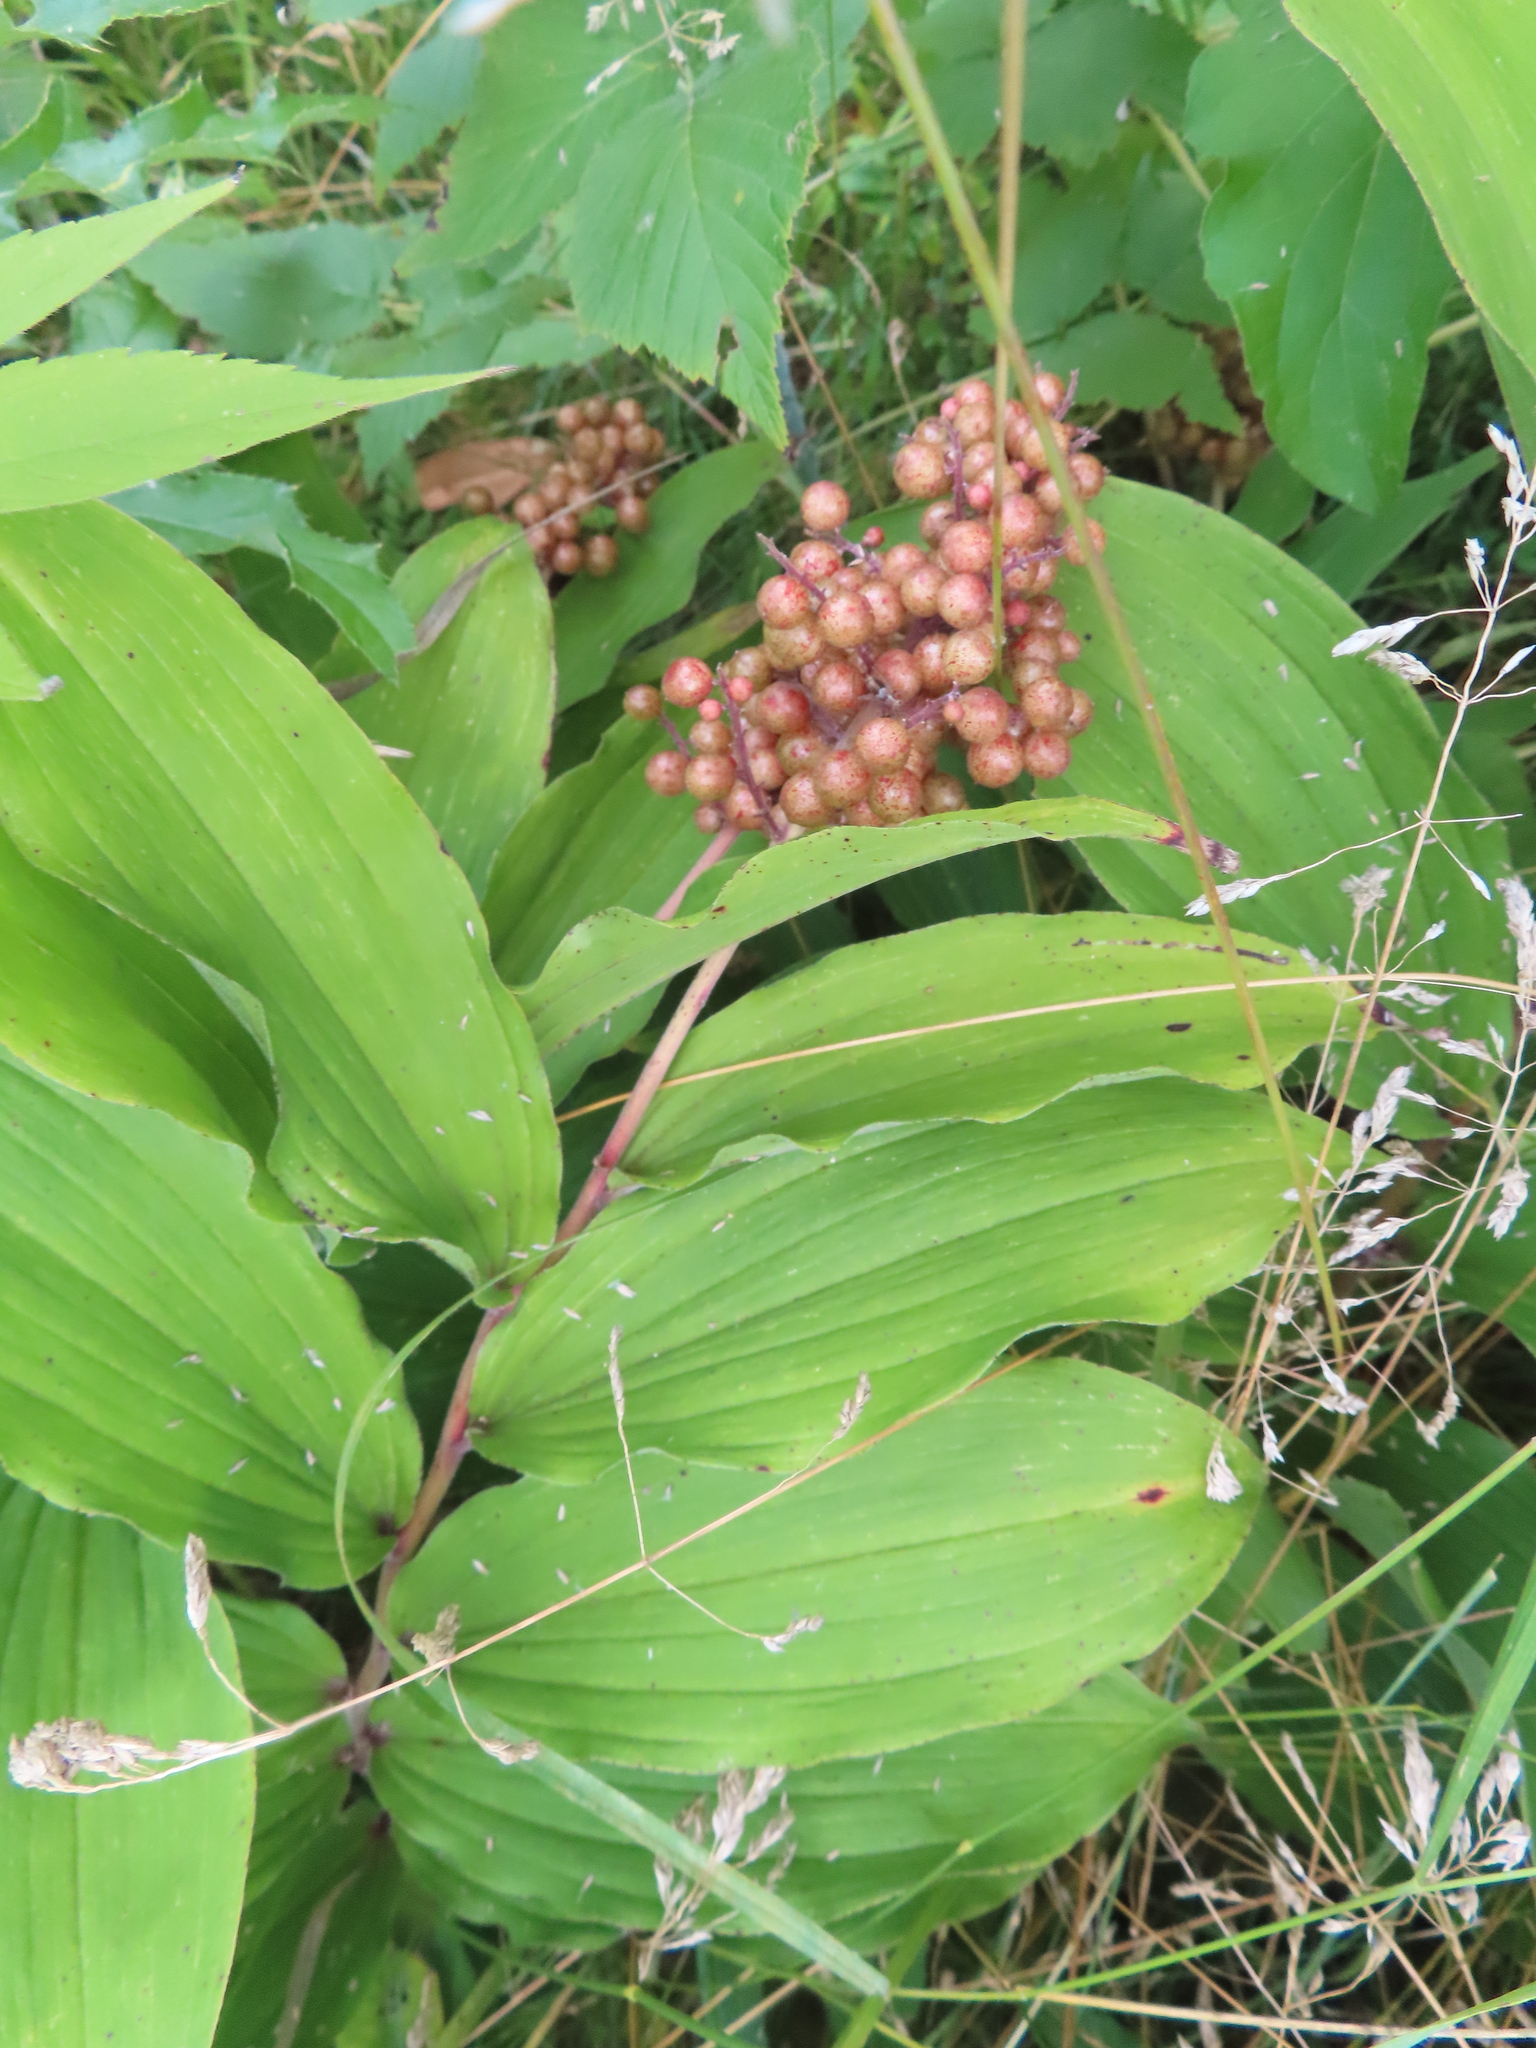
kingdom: Plantae
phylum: Tracheophyta
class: Liliopsida
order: Asparagales
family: Asparagaceae
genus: Maianthemum
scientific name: Maianthemum racemosum
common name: False spikenard
